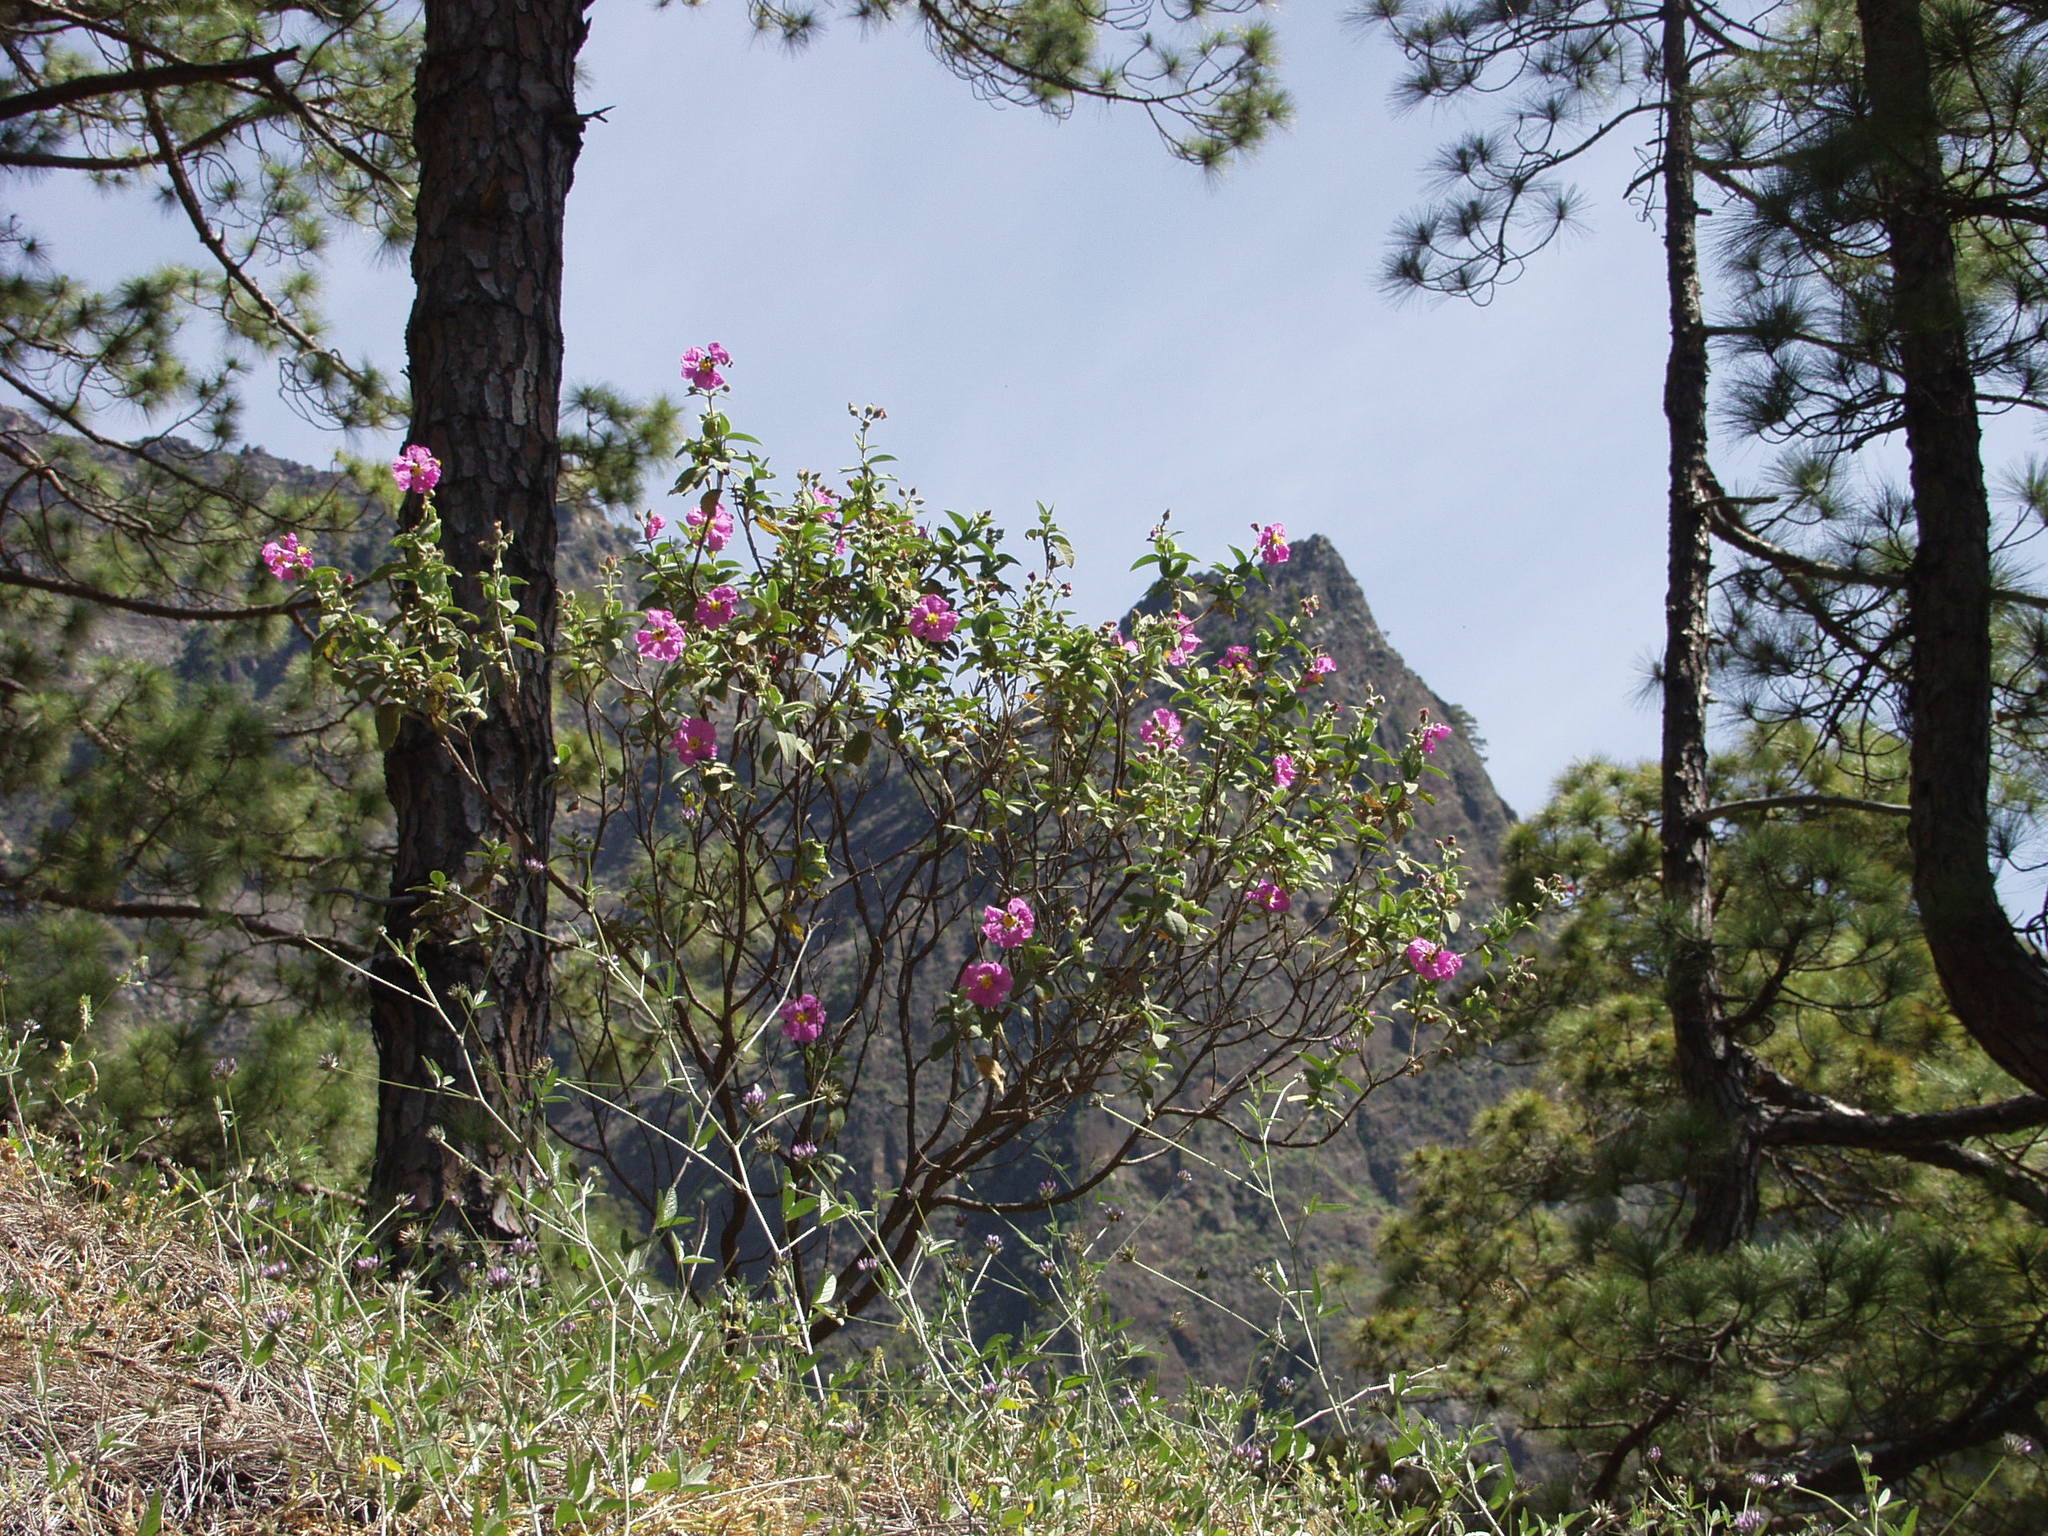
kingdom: Plantae
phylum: Tracheophyta
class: Magnoliopsida
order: Malvales
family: Cistaceae
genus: Cistus
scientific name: Cistus symphytifolius
